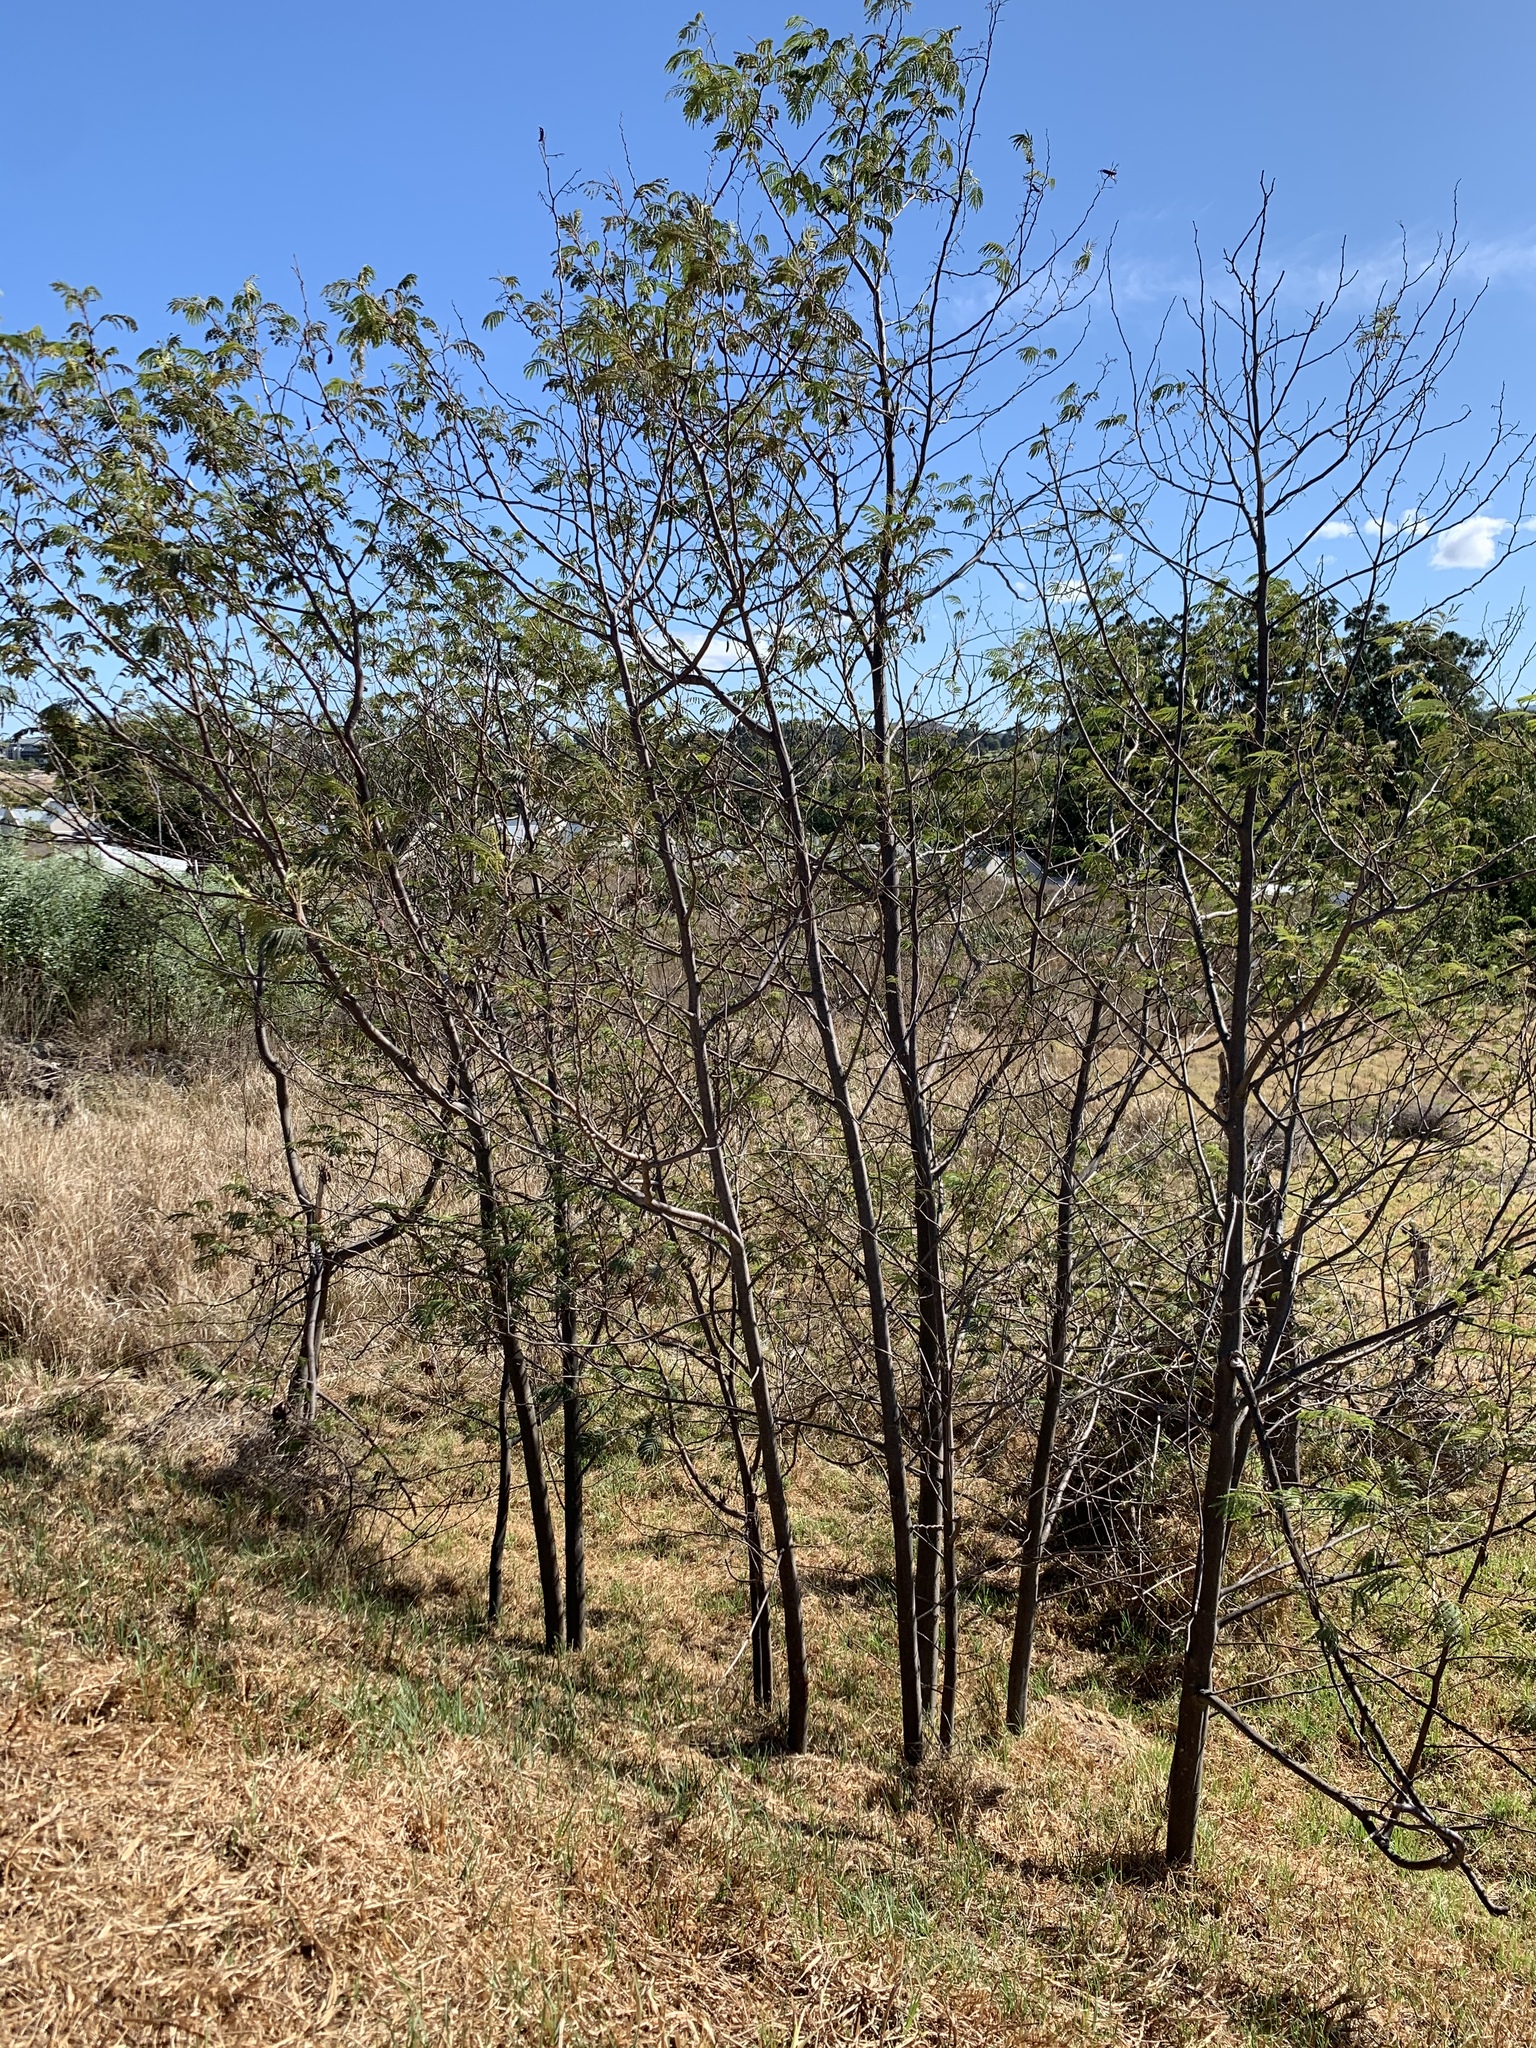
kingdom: Plantae
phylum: Tracheophyta
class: Magnoliopsida
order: Fabales
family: Fabaceae
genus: Paraserianthes
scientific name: Paraserianthes lophantha
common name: Plume albizia
